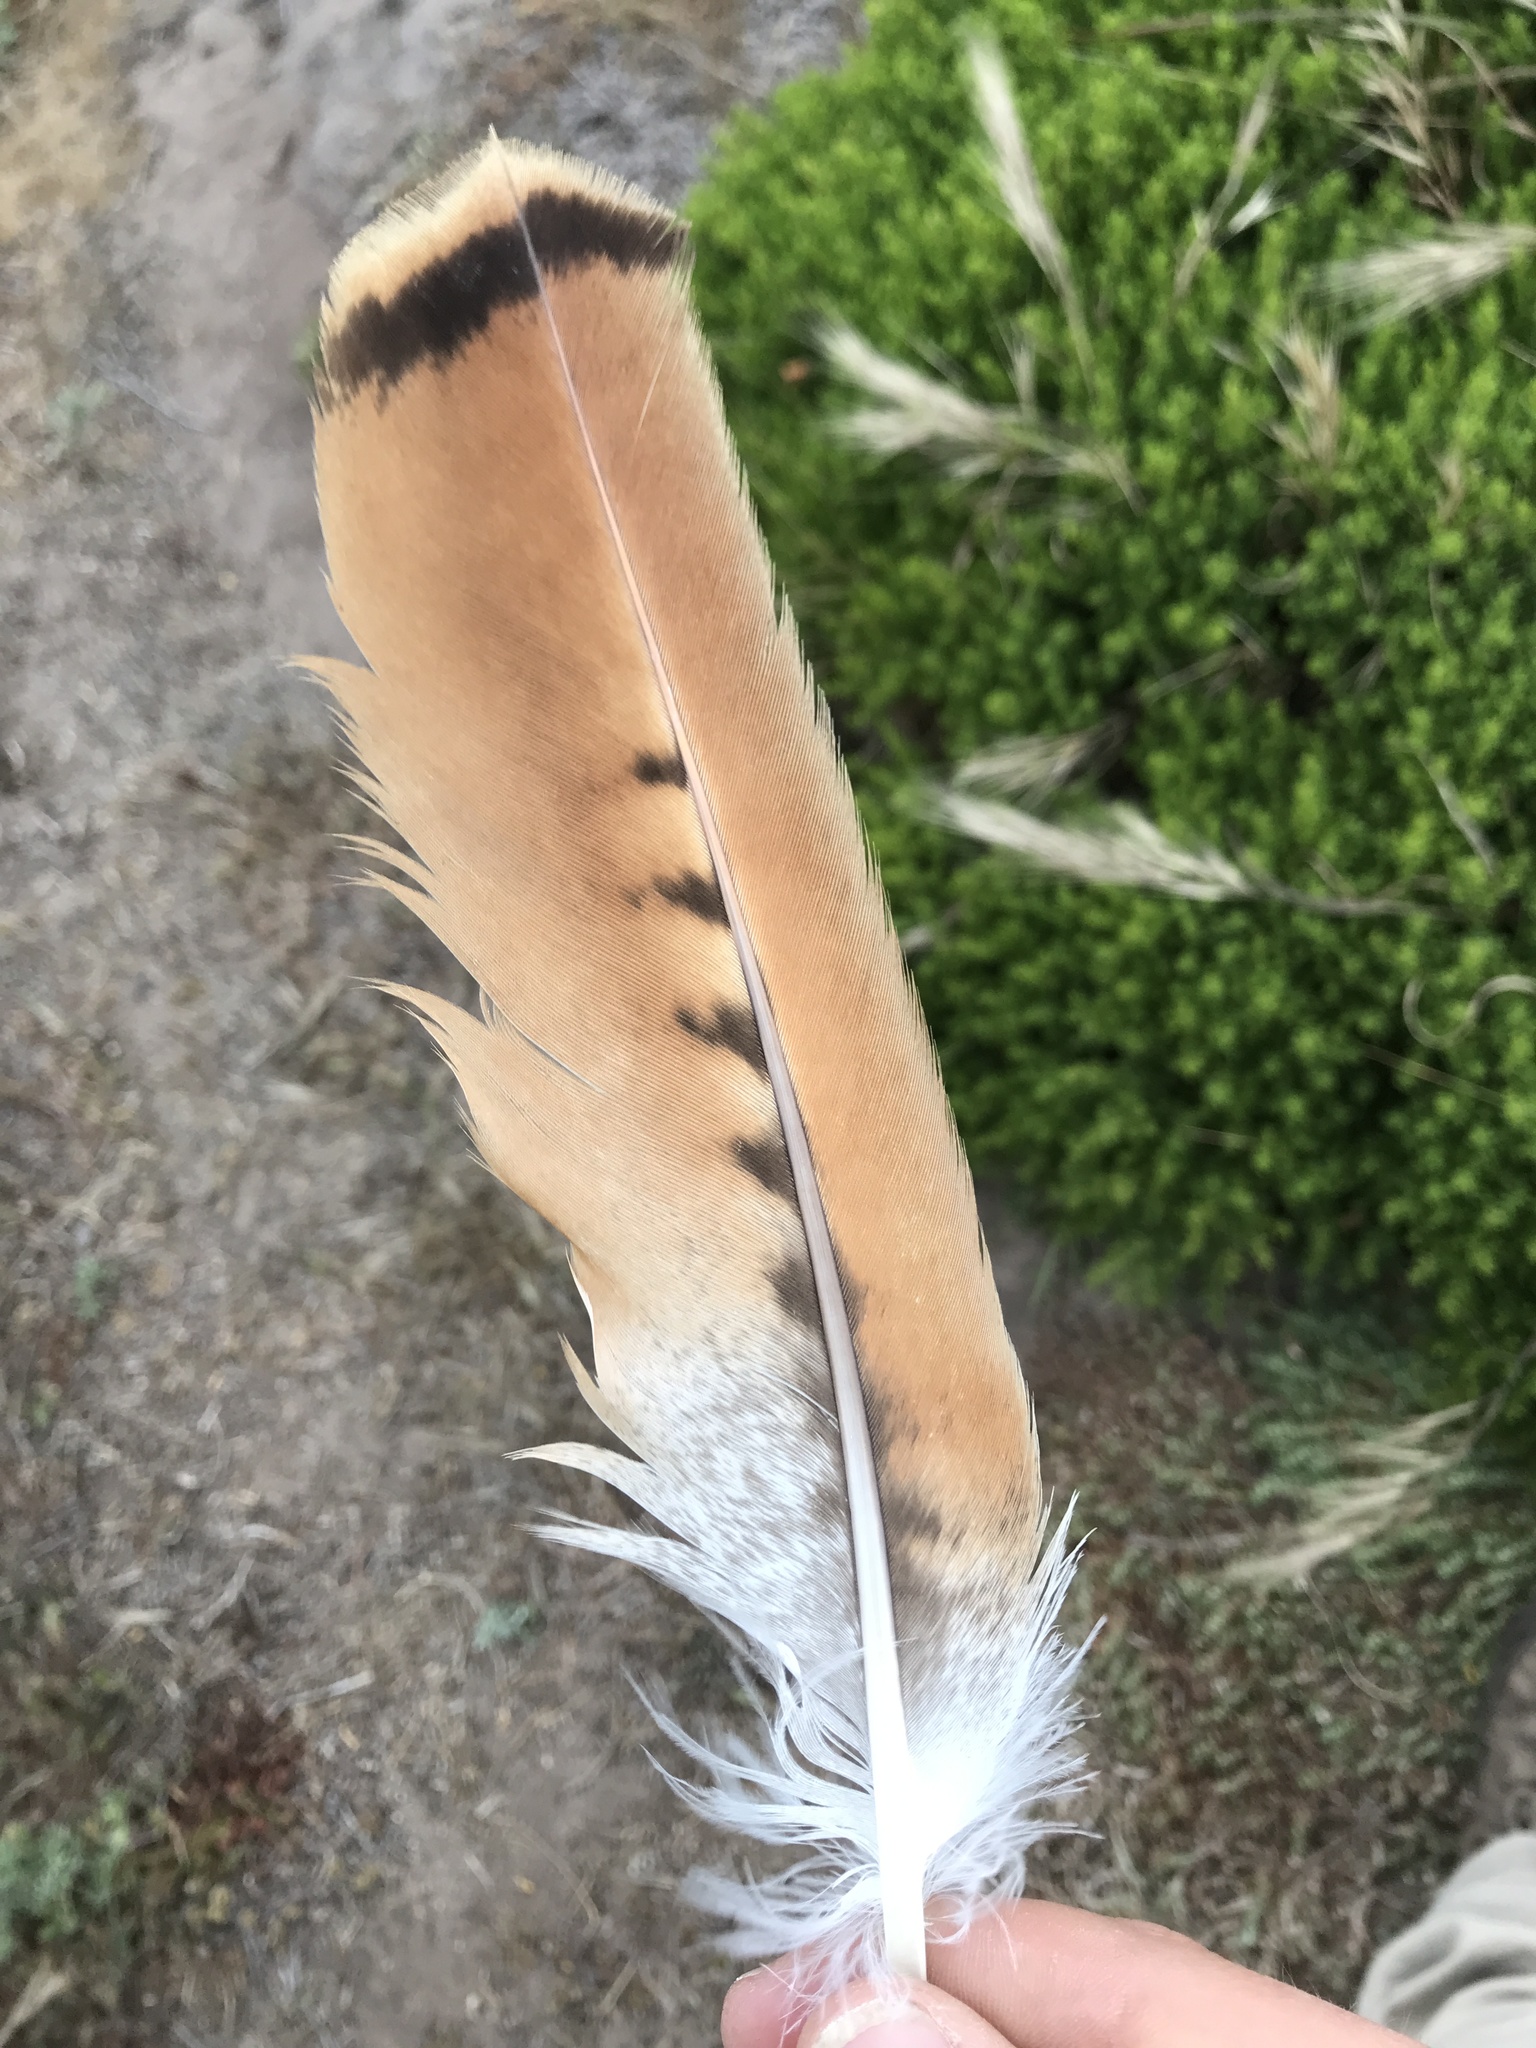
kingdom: Animalia
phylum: Chordata
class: Aves
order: Accipitriformes
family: Accipitridae
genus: Buteo
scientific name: Buteo jamaicensis
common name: Red-tailed hawk
